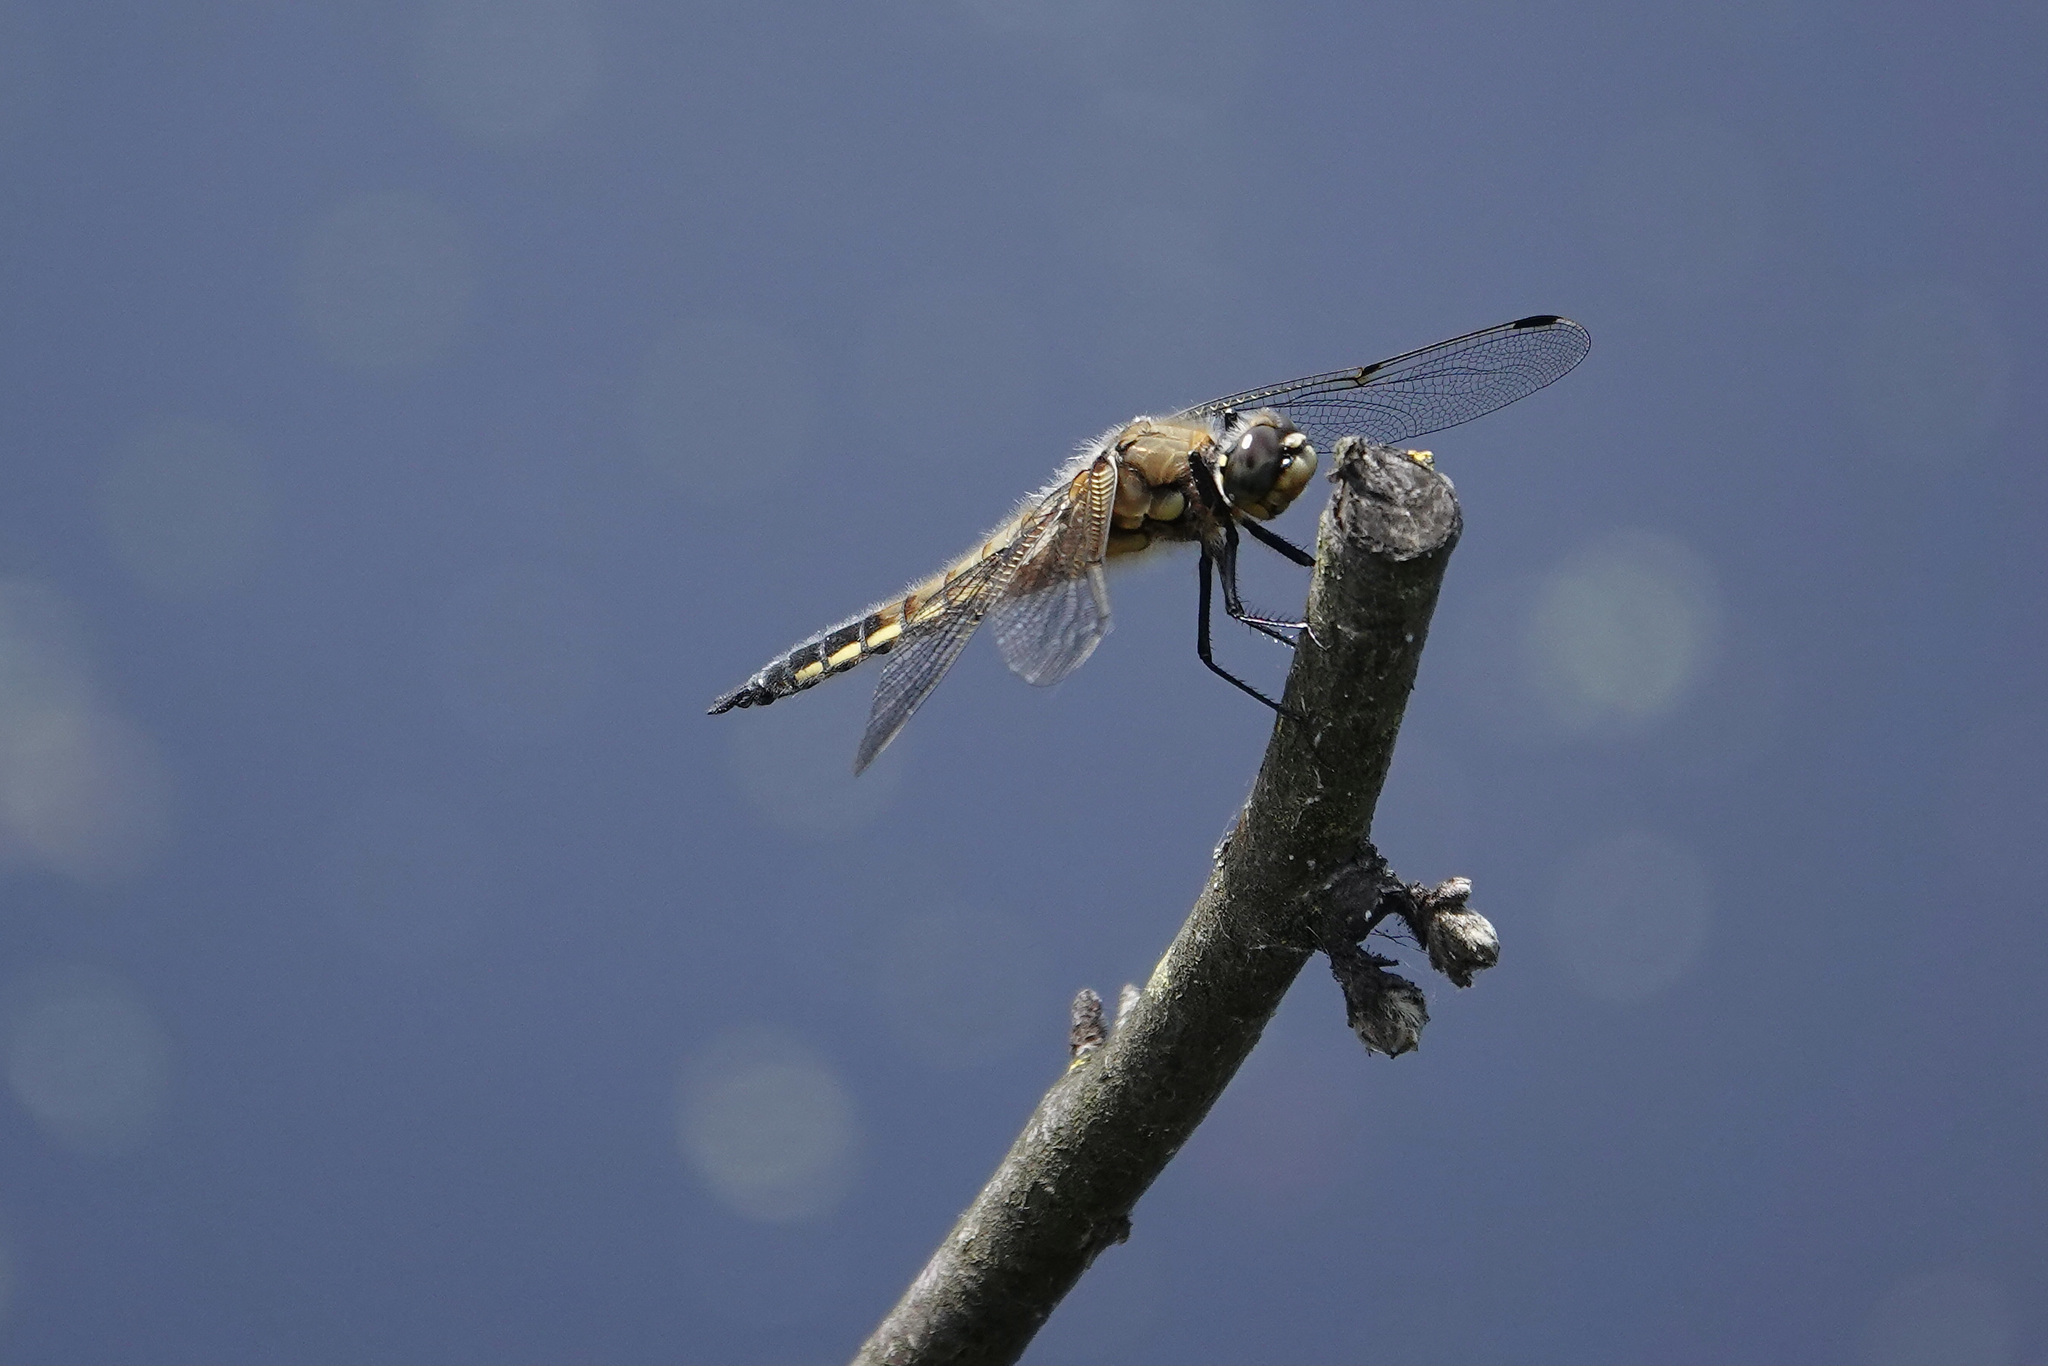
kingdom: Animalia
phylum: Arthropoda
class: Insecta
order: Odonata
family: Libellulidae
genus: Libellula
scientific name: Libellula quadrimaculata
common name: Four-spotted chaser
